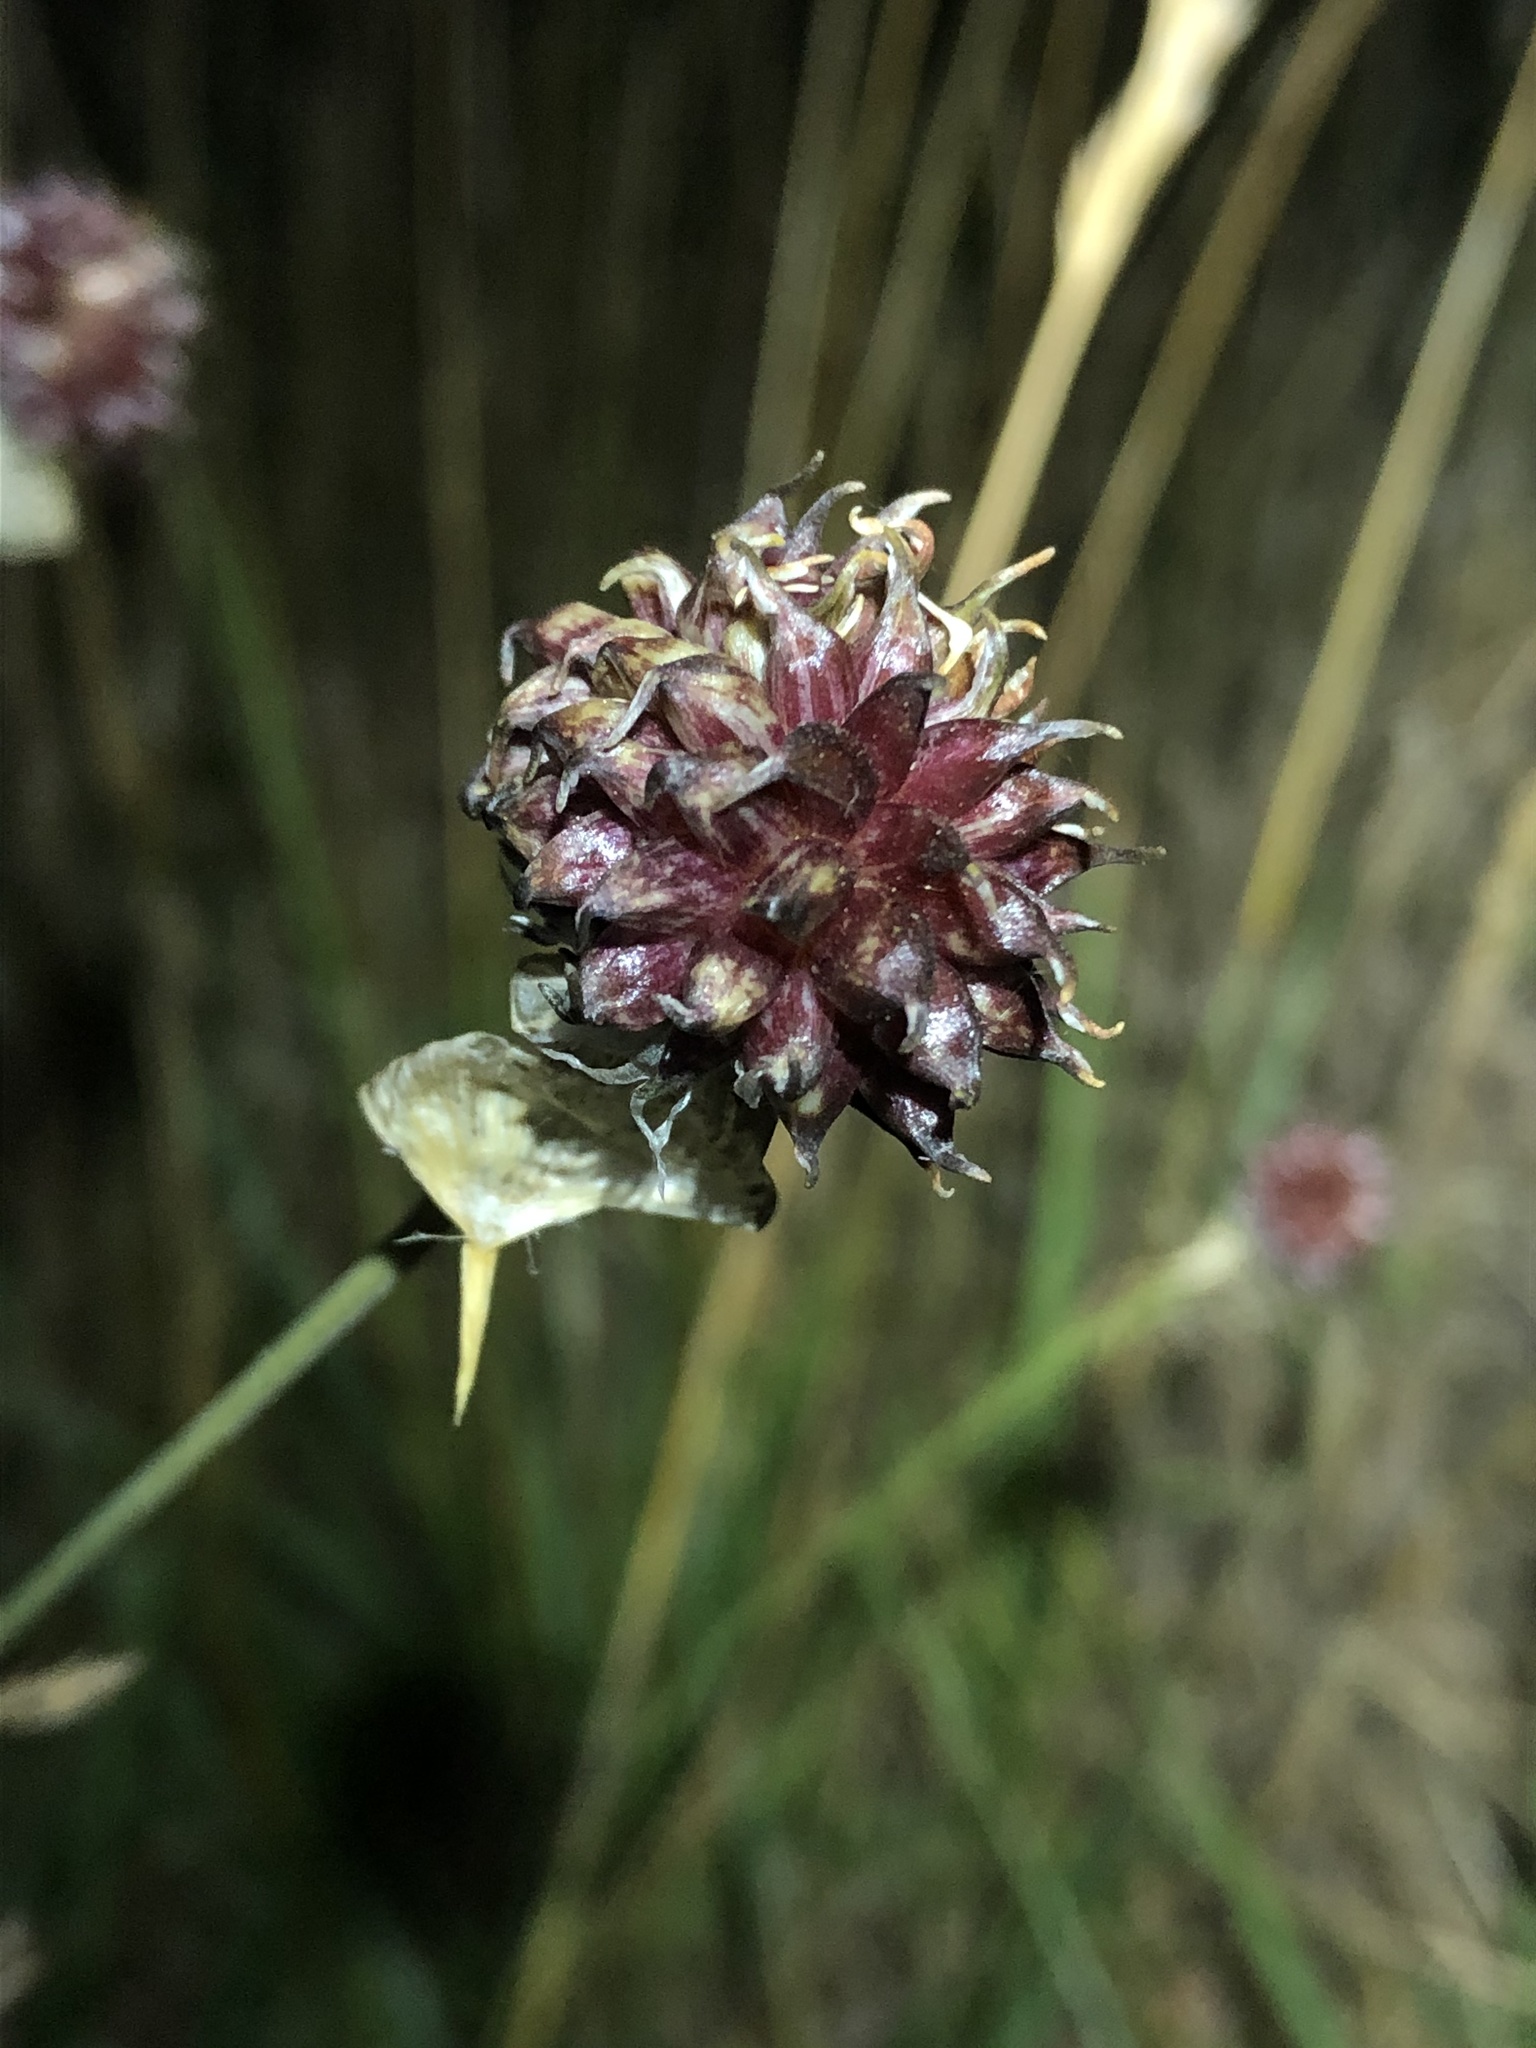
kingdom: Plantae
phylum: Tracheophyta
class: Liliopsida
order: Asparagales
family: Amaryllidaceae
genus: Allium
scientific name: Allium vineale
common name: Crow garlic
